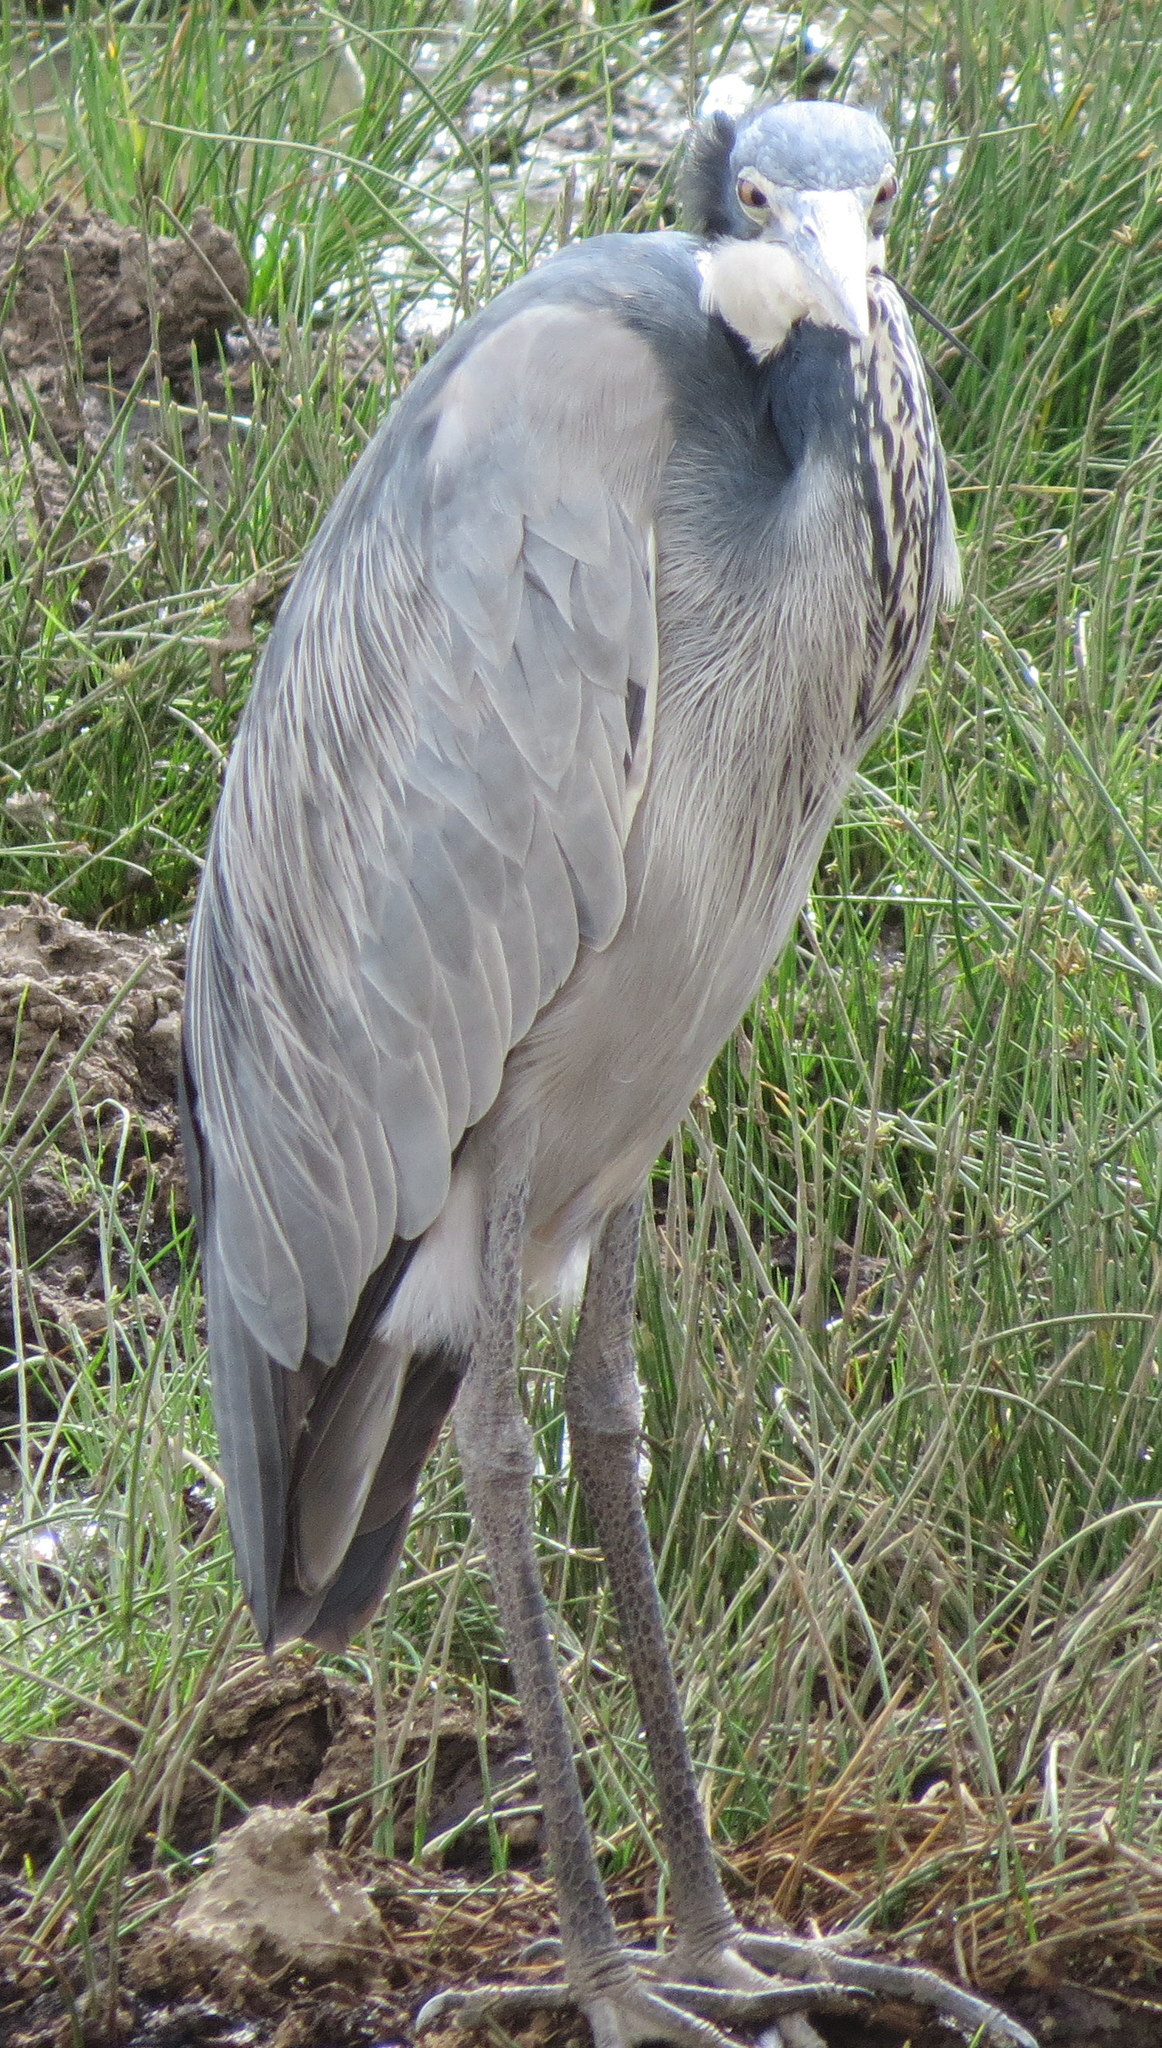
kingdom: Animalia
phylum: Chordata
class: Aves
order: Pelecaniformes
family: Ardeidae
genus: Ardea
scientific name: Ardea melanocephala
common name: Black-headed heron
